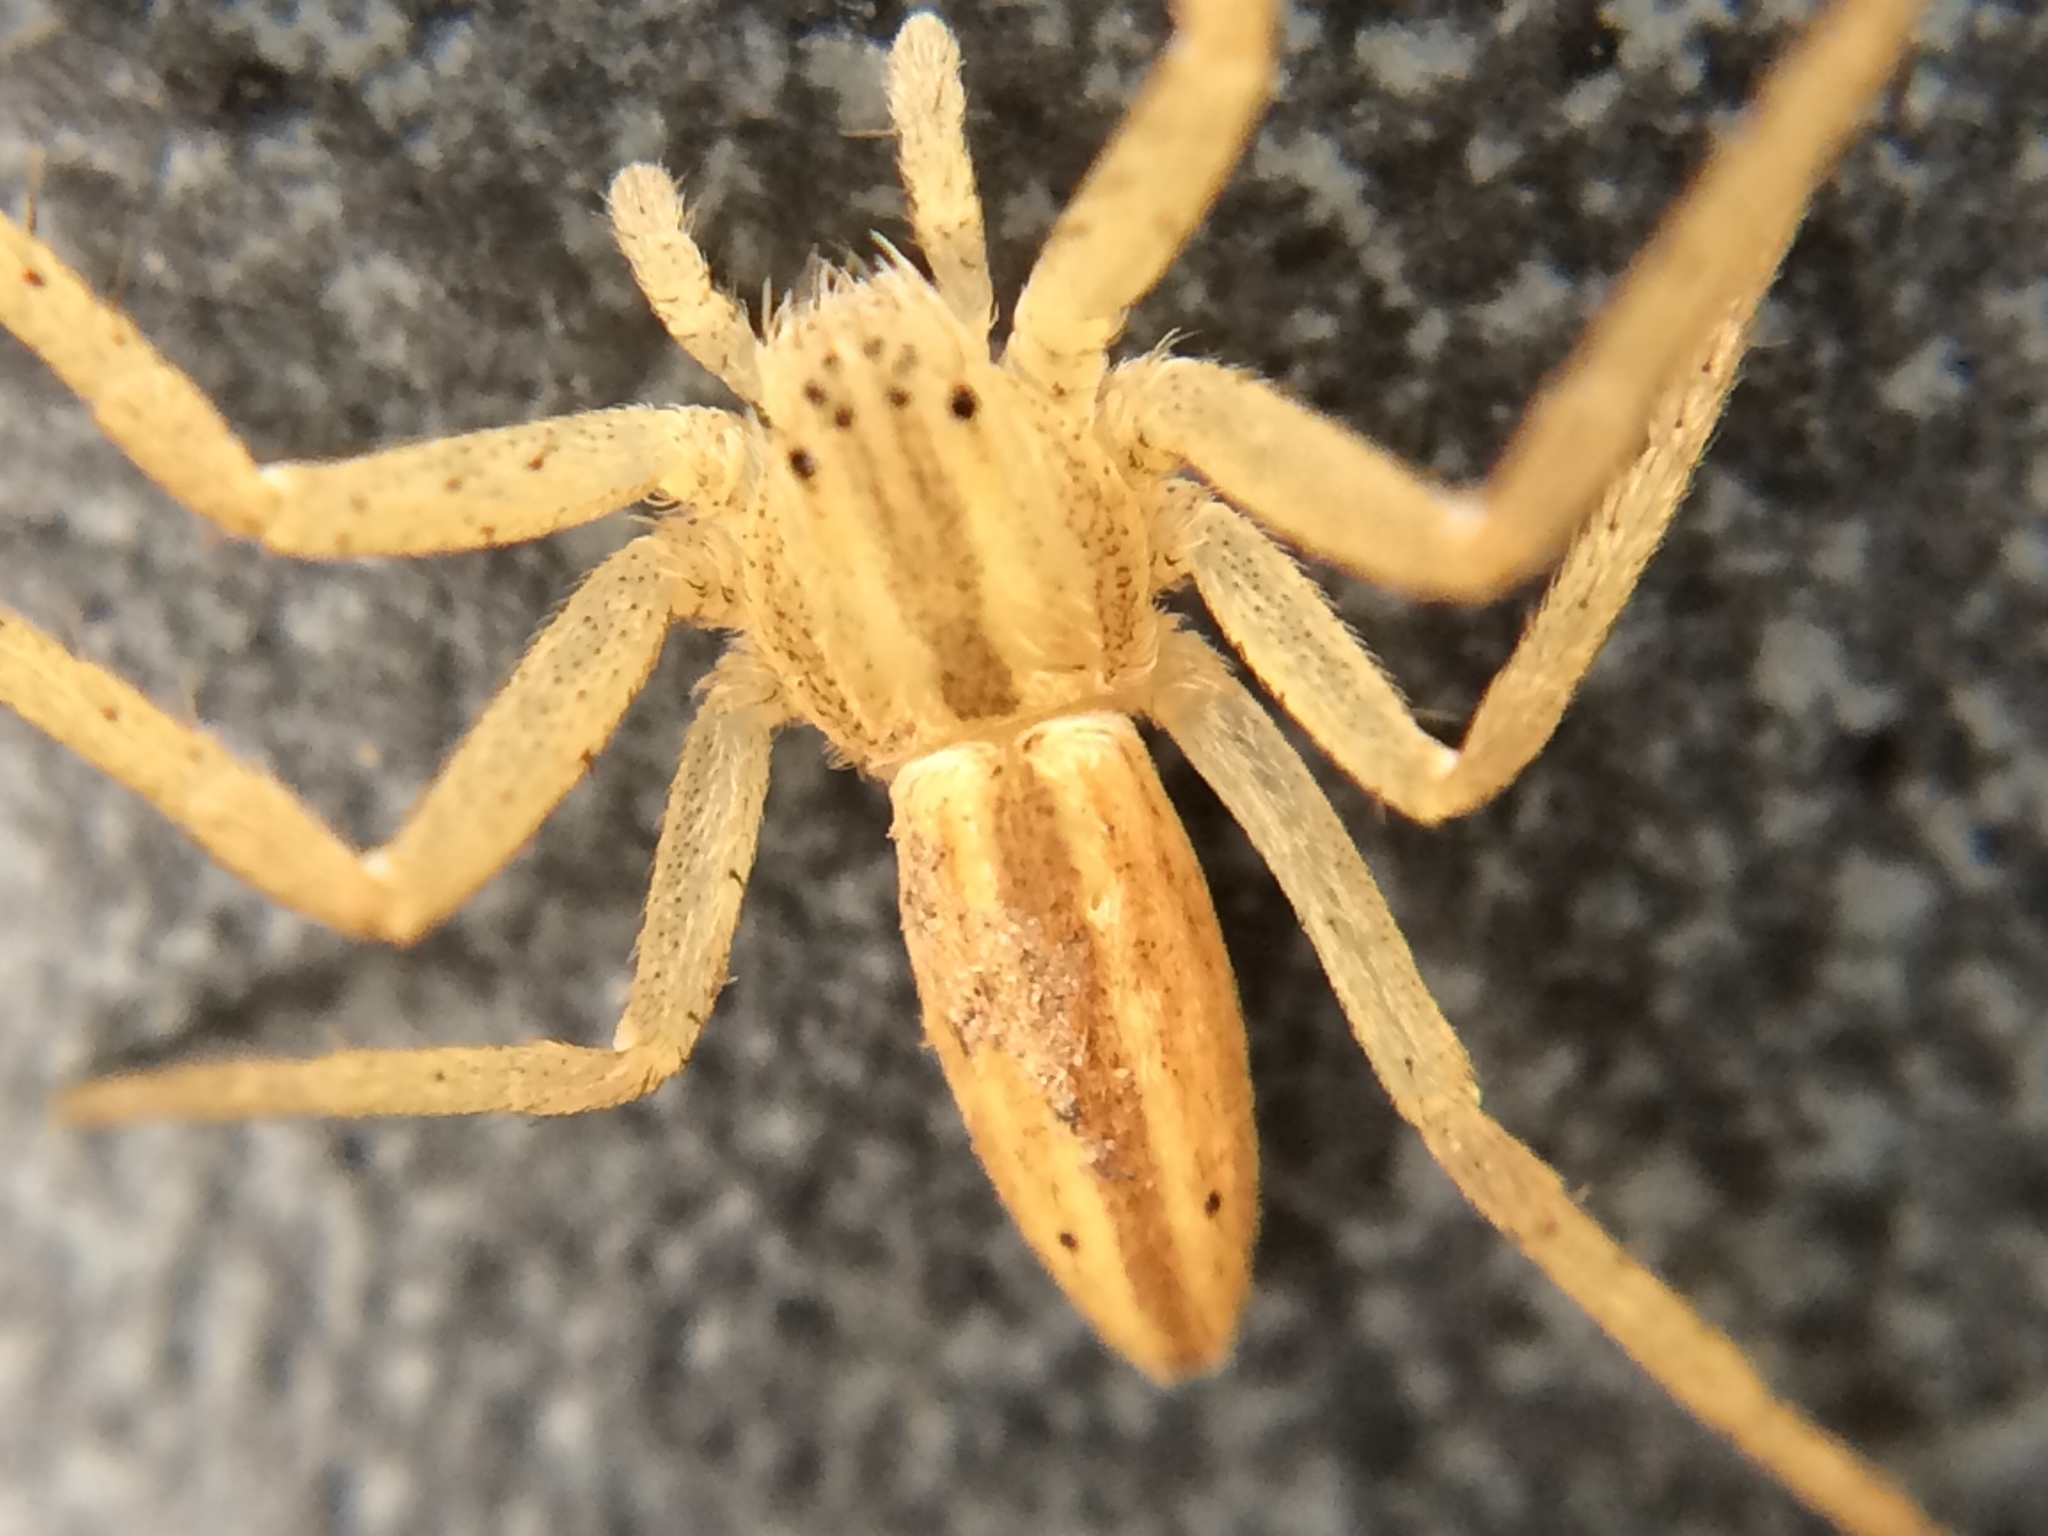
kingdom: Animalia
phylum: Arthropoda
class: Arachnida
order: Araneae
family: Philodromidae
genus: Tibellus
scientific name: Tibellus oblongus
